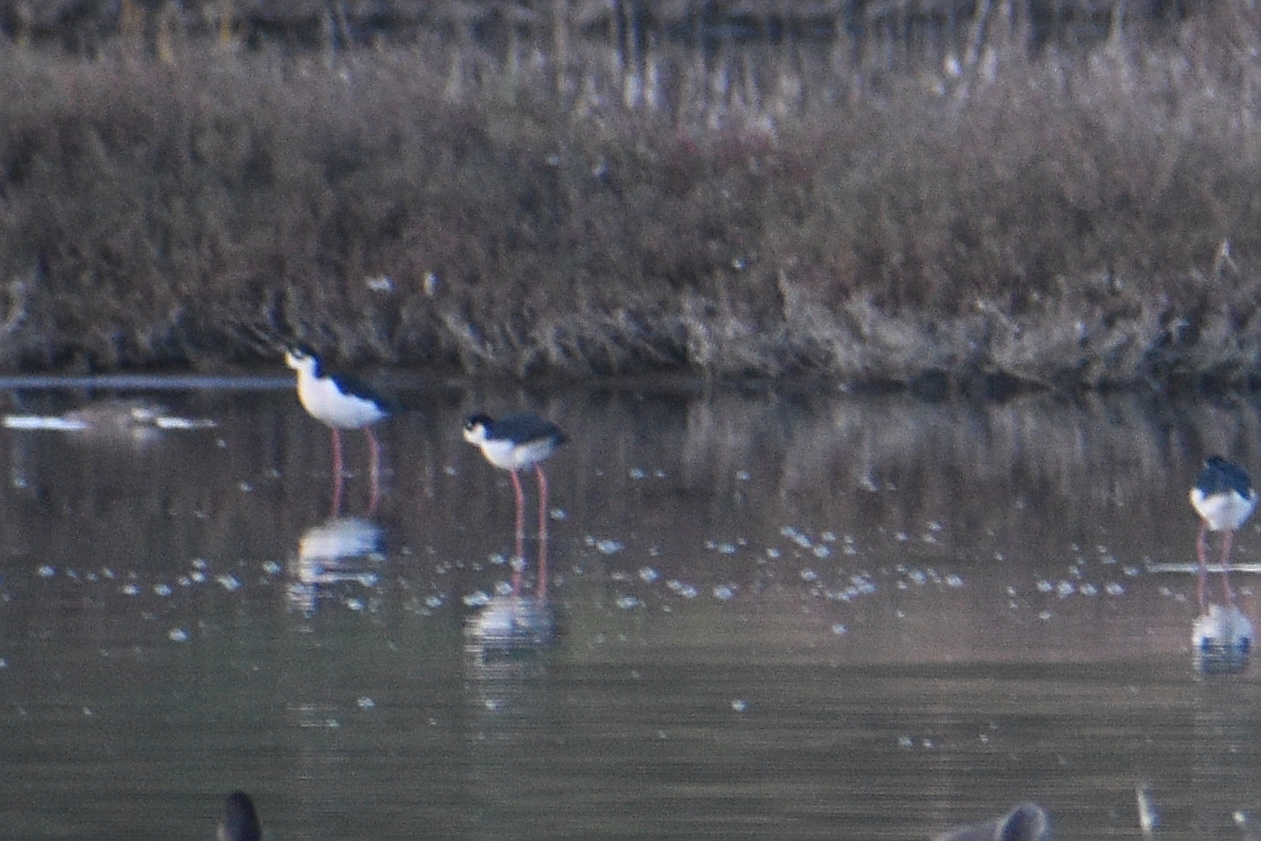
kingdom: Animalia
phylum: Chordata
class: Aves
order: Charadriiformes
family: Recurvirostridae
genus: Himantopus
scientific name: Himantopus mexicanus
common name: Black-necked stilt
